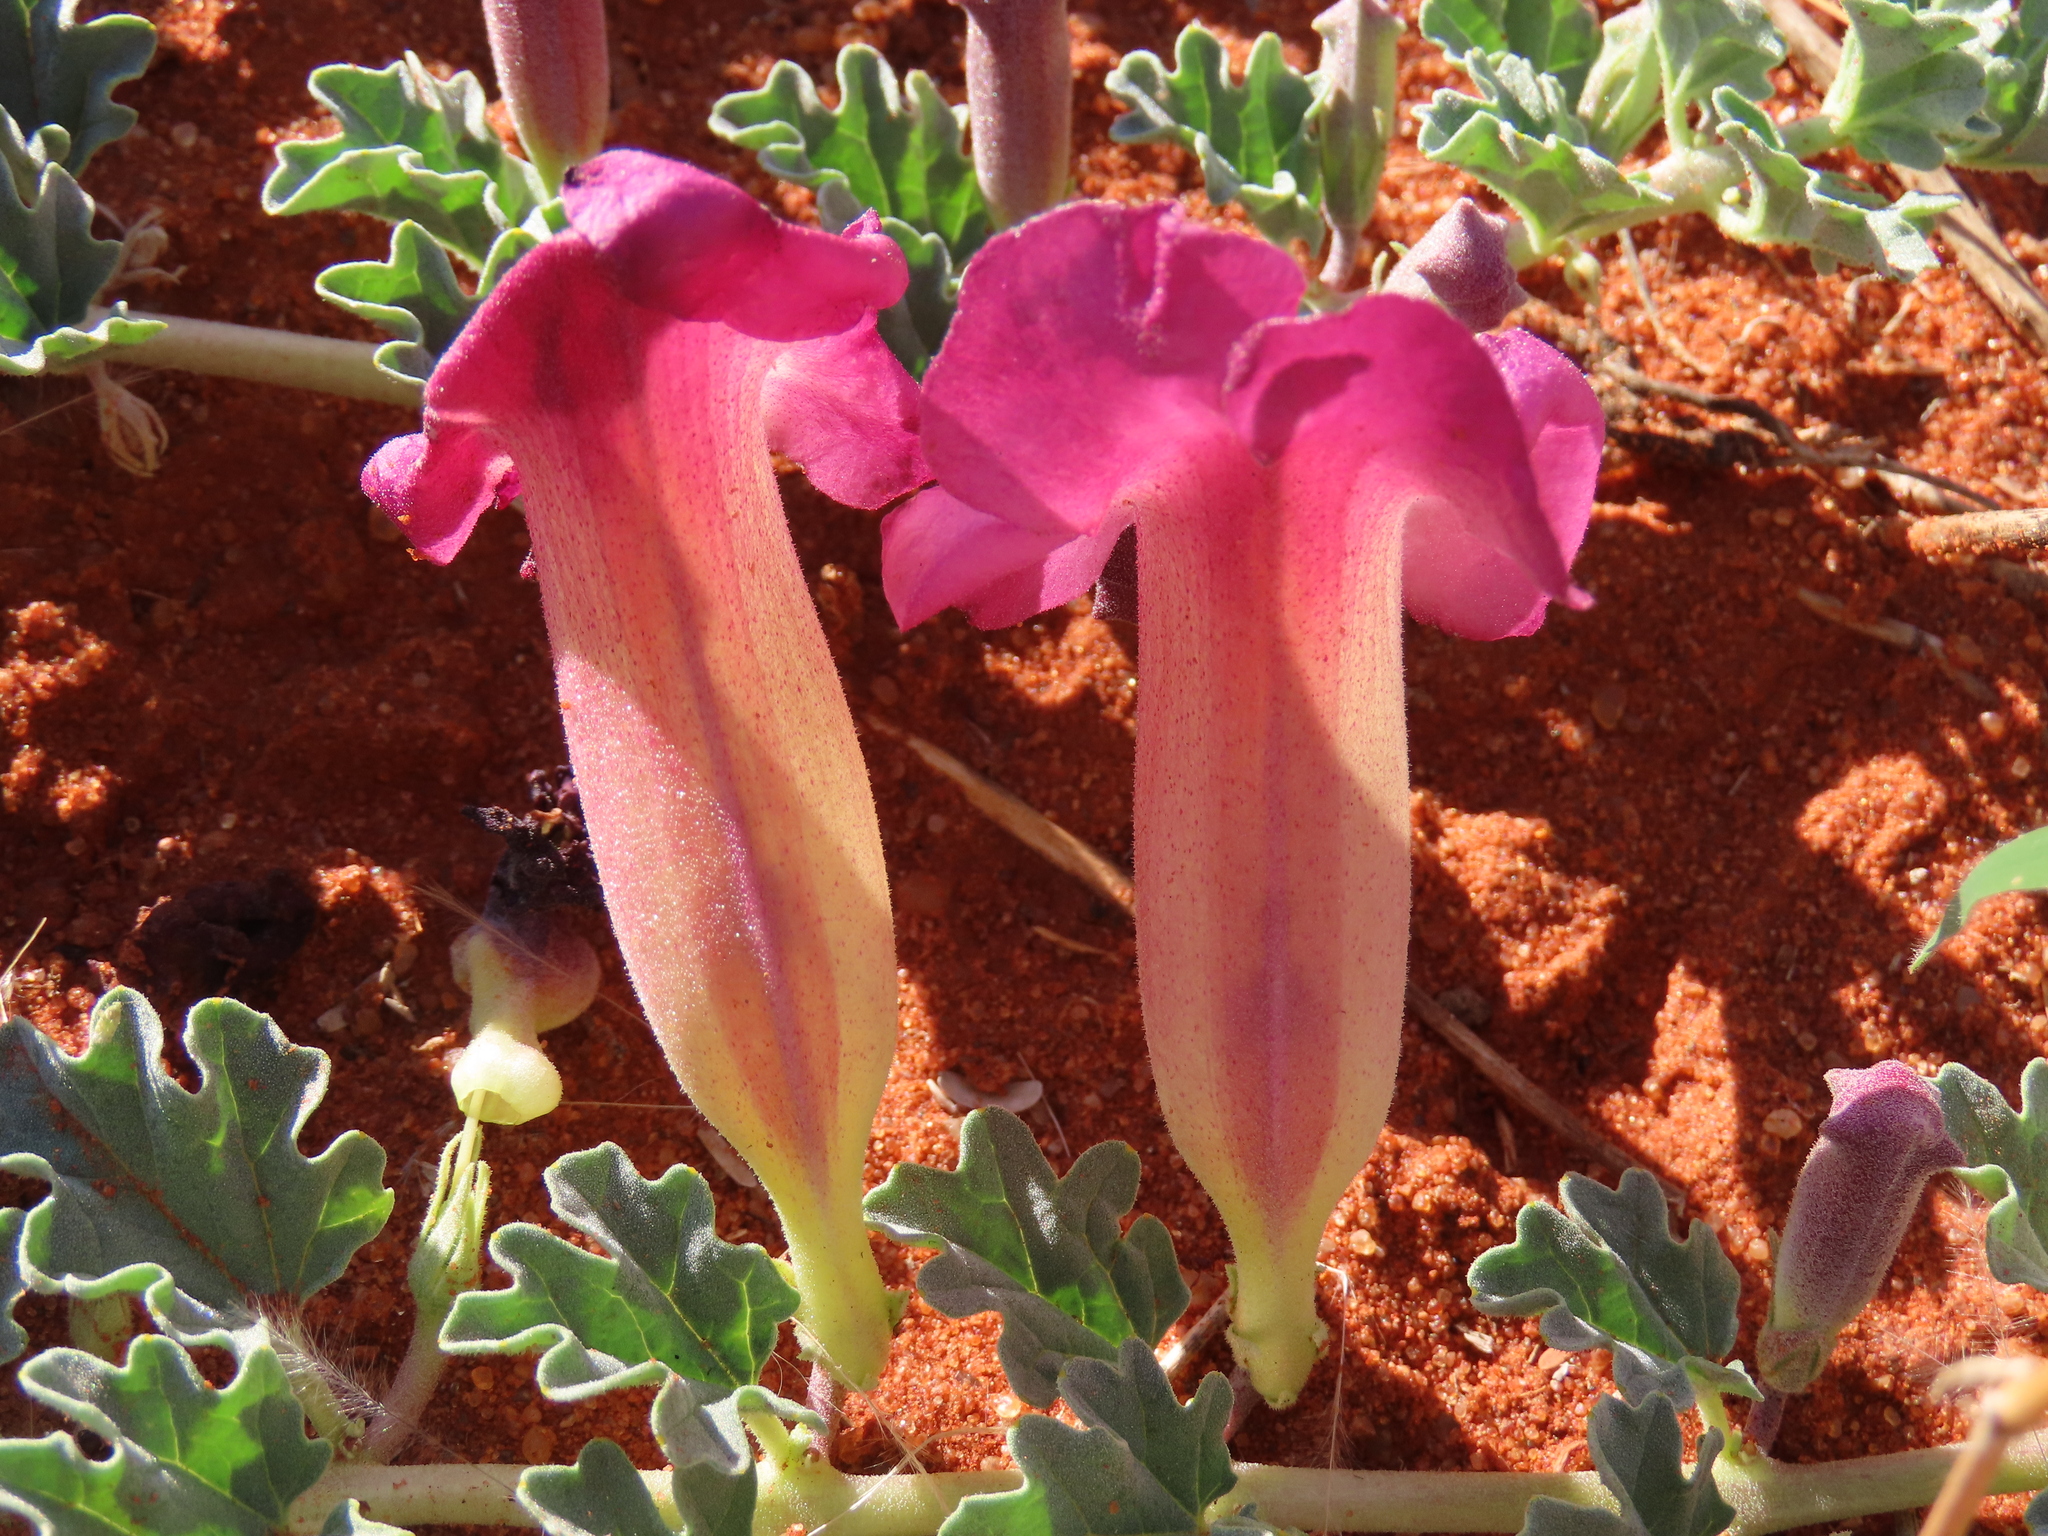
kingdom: Plantae
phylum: Tracheophyta
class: Magnoliopsida
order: Lamiales
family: Pedaliaceae
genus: Harpagophytum
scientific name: Harpagophytum procumbens
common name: Grappleplant
